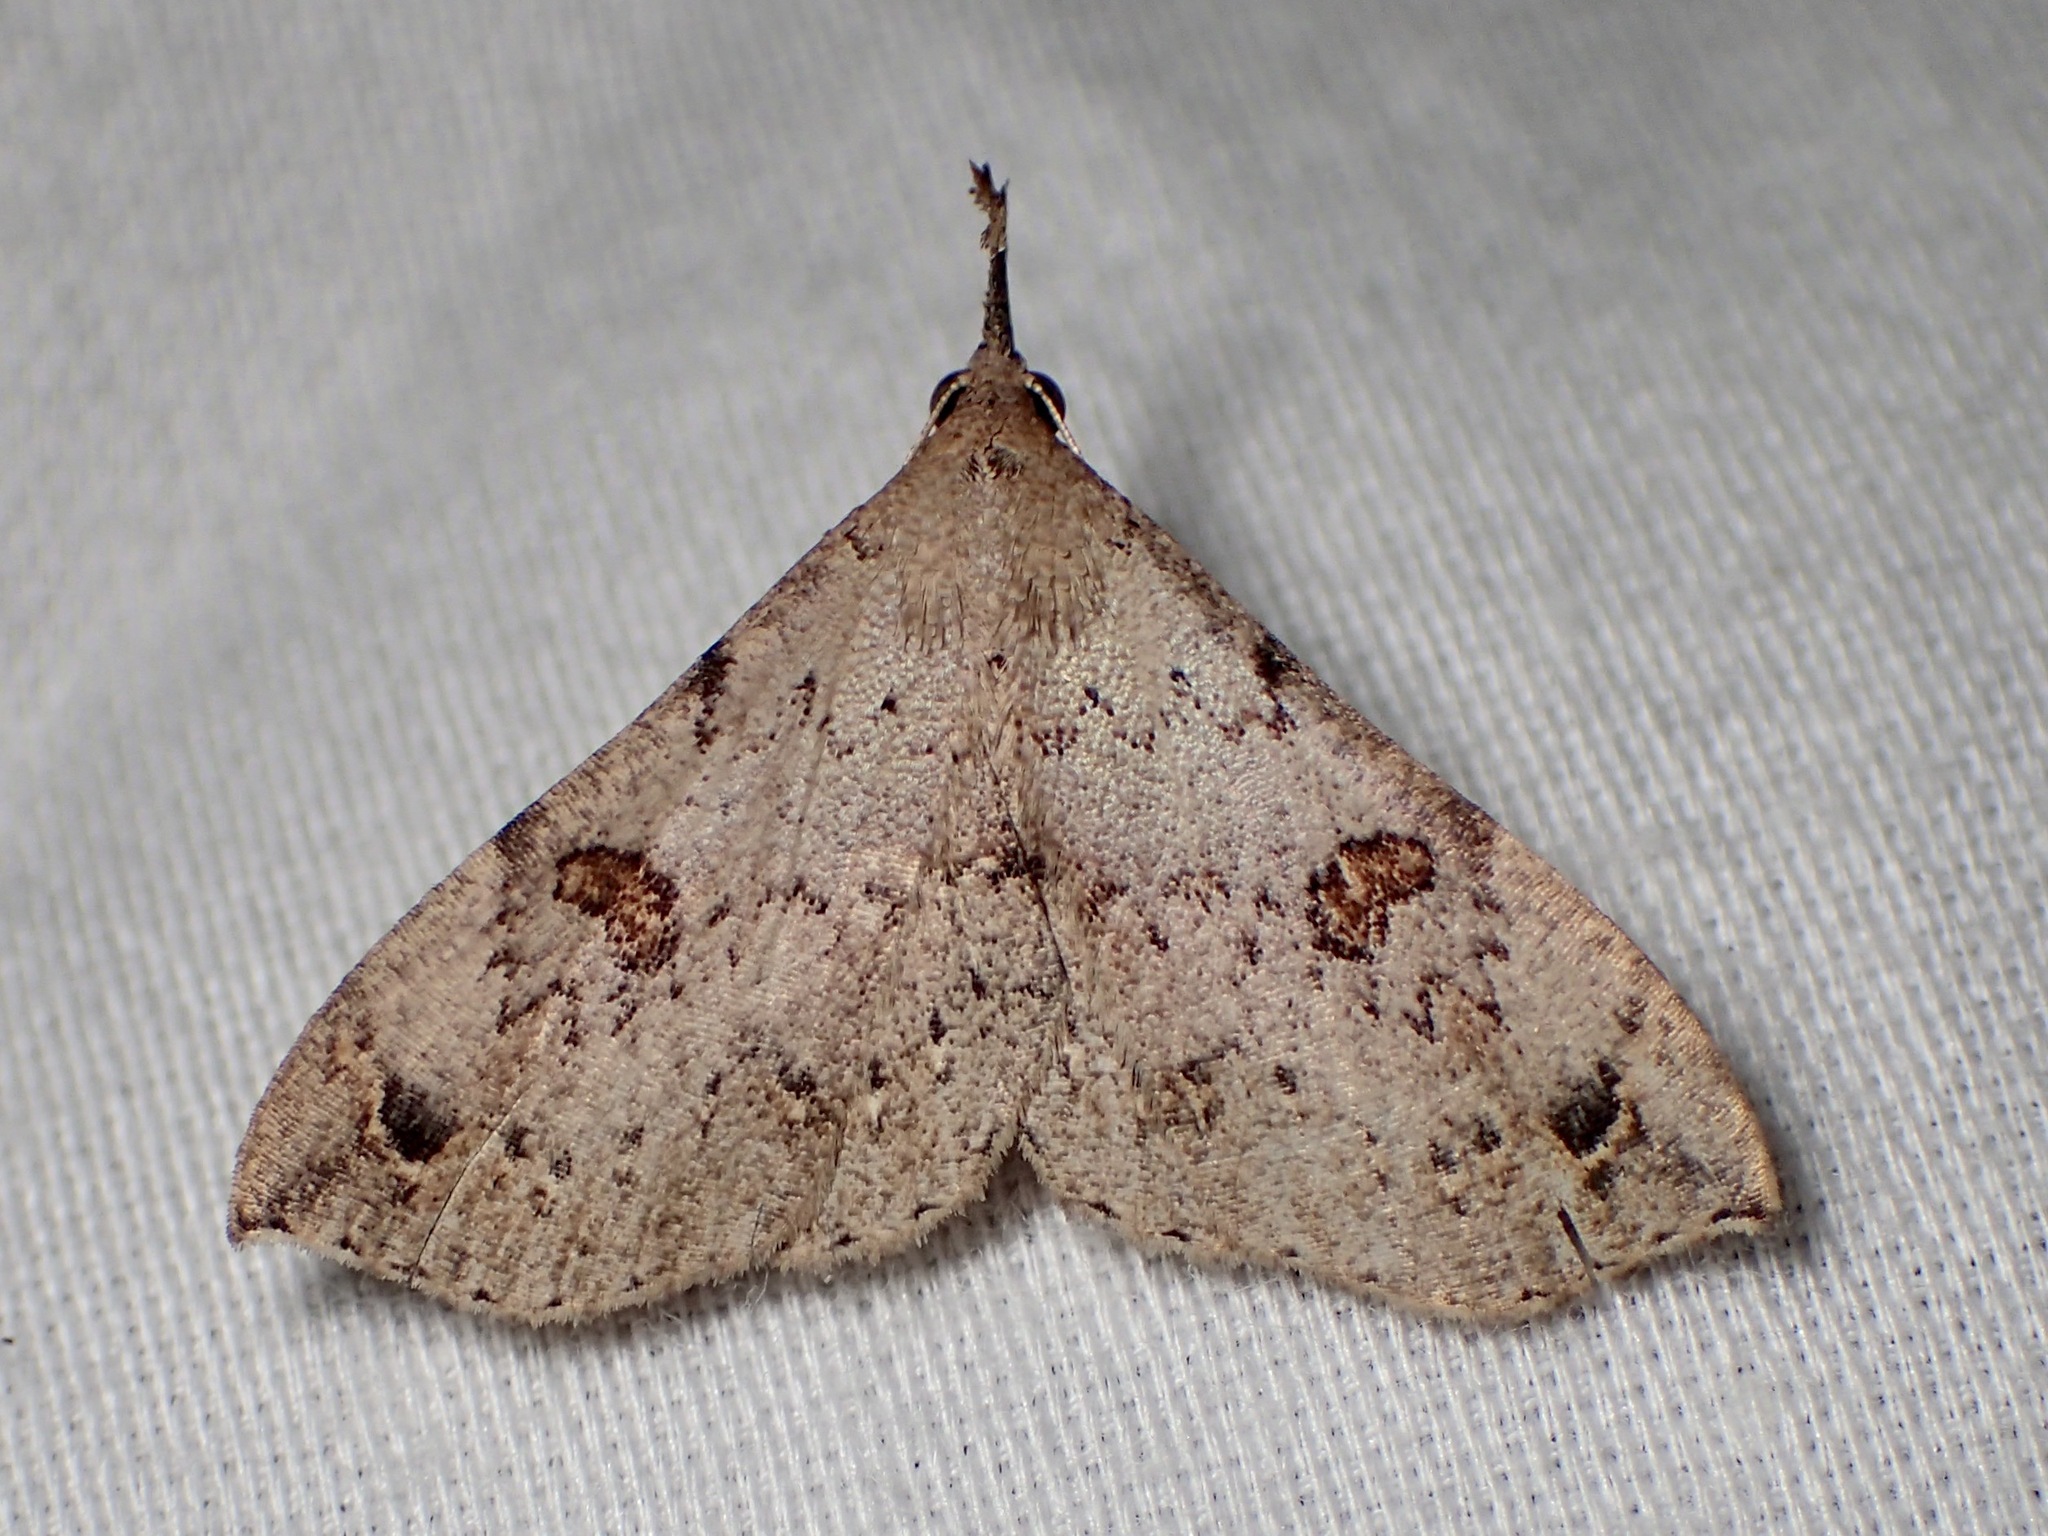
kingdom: Animalia
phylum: Arthropoda
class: Insecta
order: Lepidoptera
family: Erebidae
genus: Squamipalpis
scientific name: Squamipalpis pantoea
